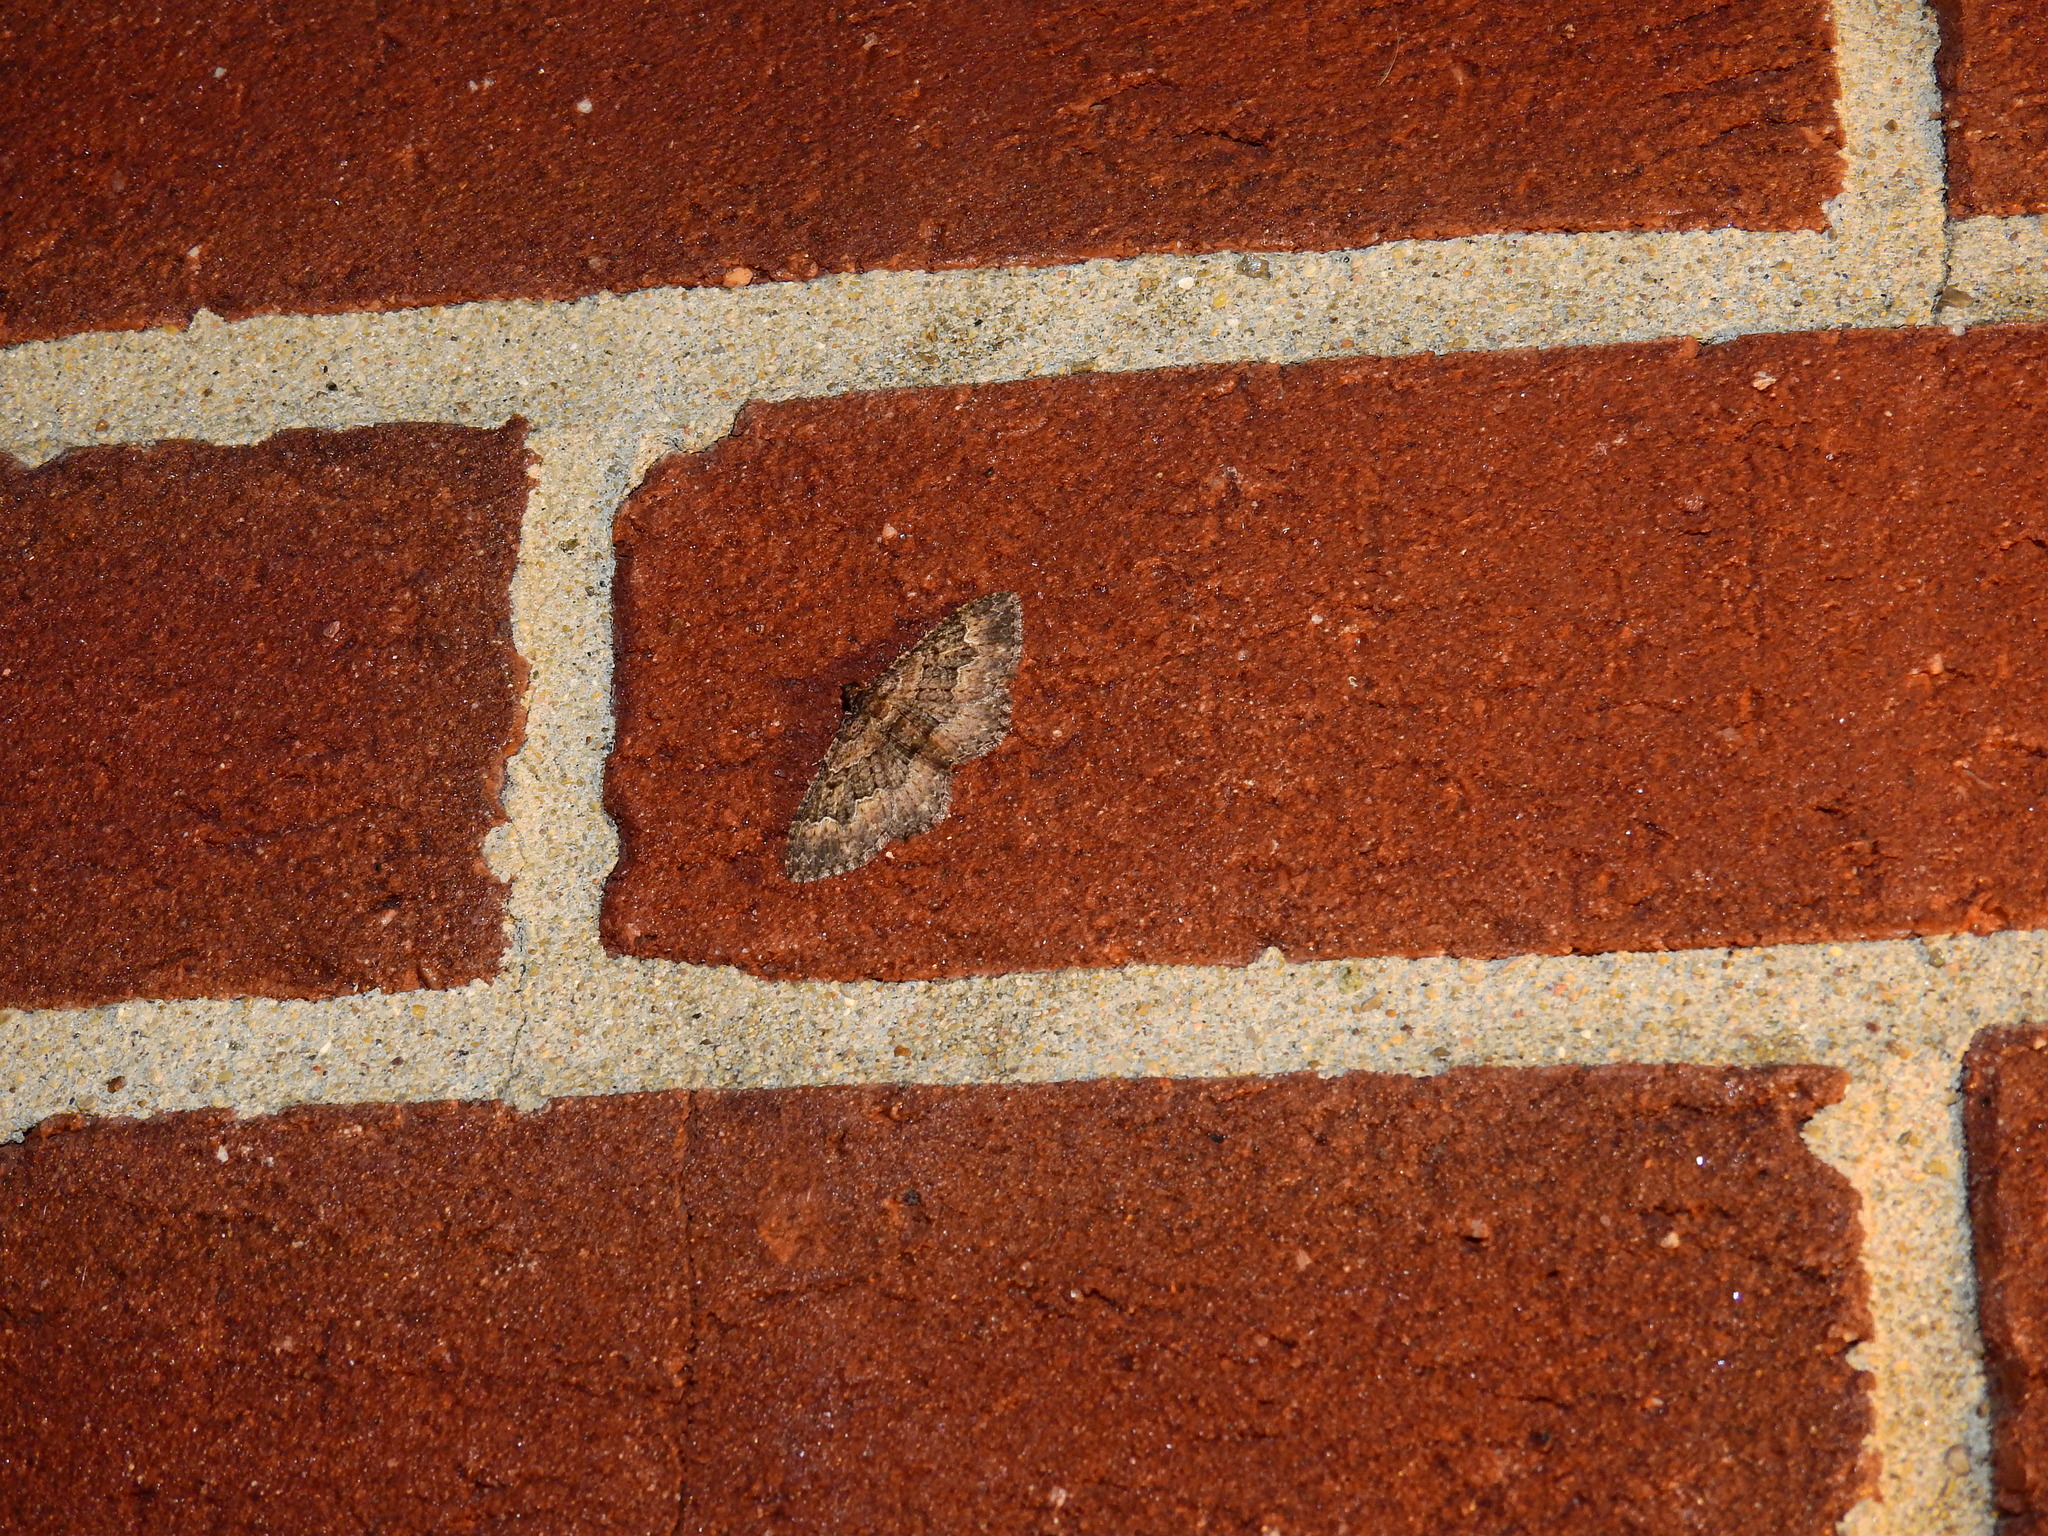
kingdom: Animalia
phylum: Arthropoda
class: Insecta
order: Lepidoptera
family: Geometridae
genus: Disclisioprocta
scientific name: Disclisioprocta stellata
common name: Somber carpet
